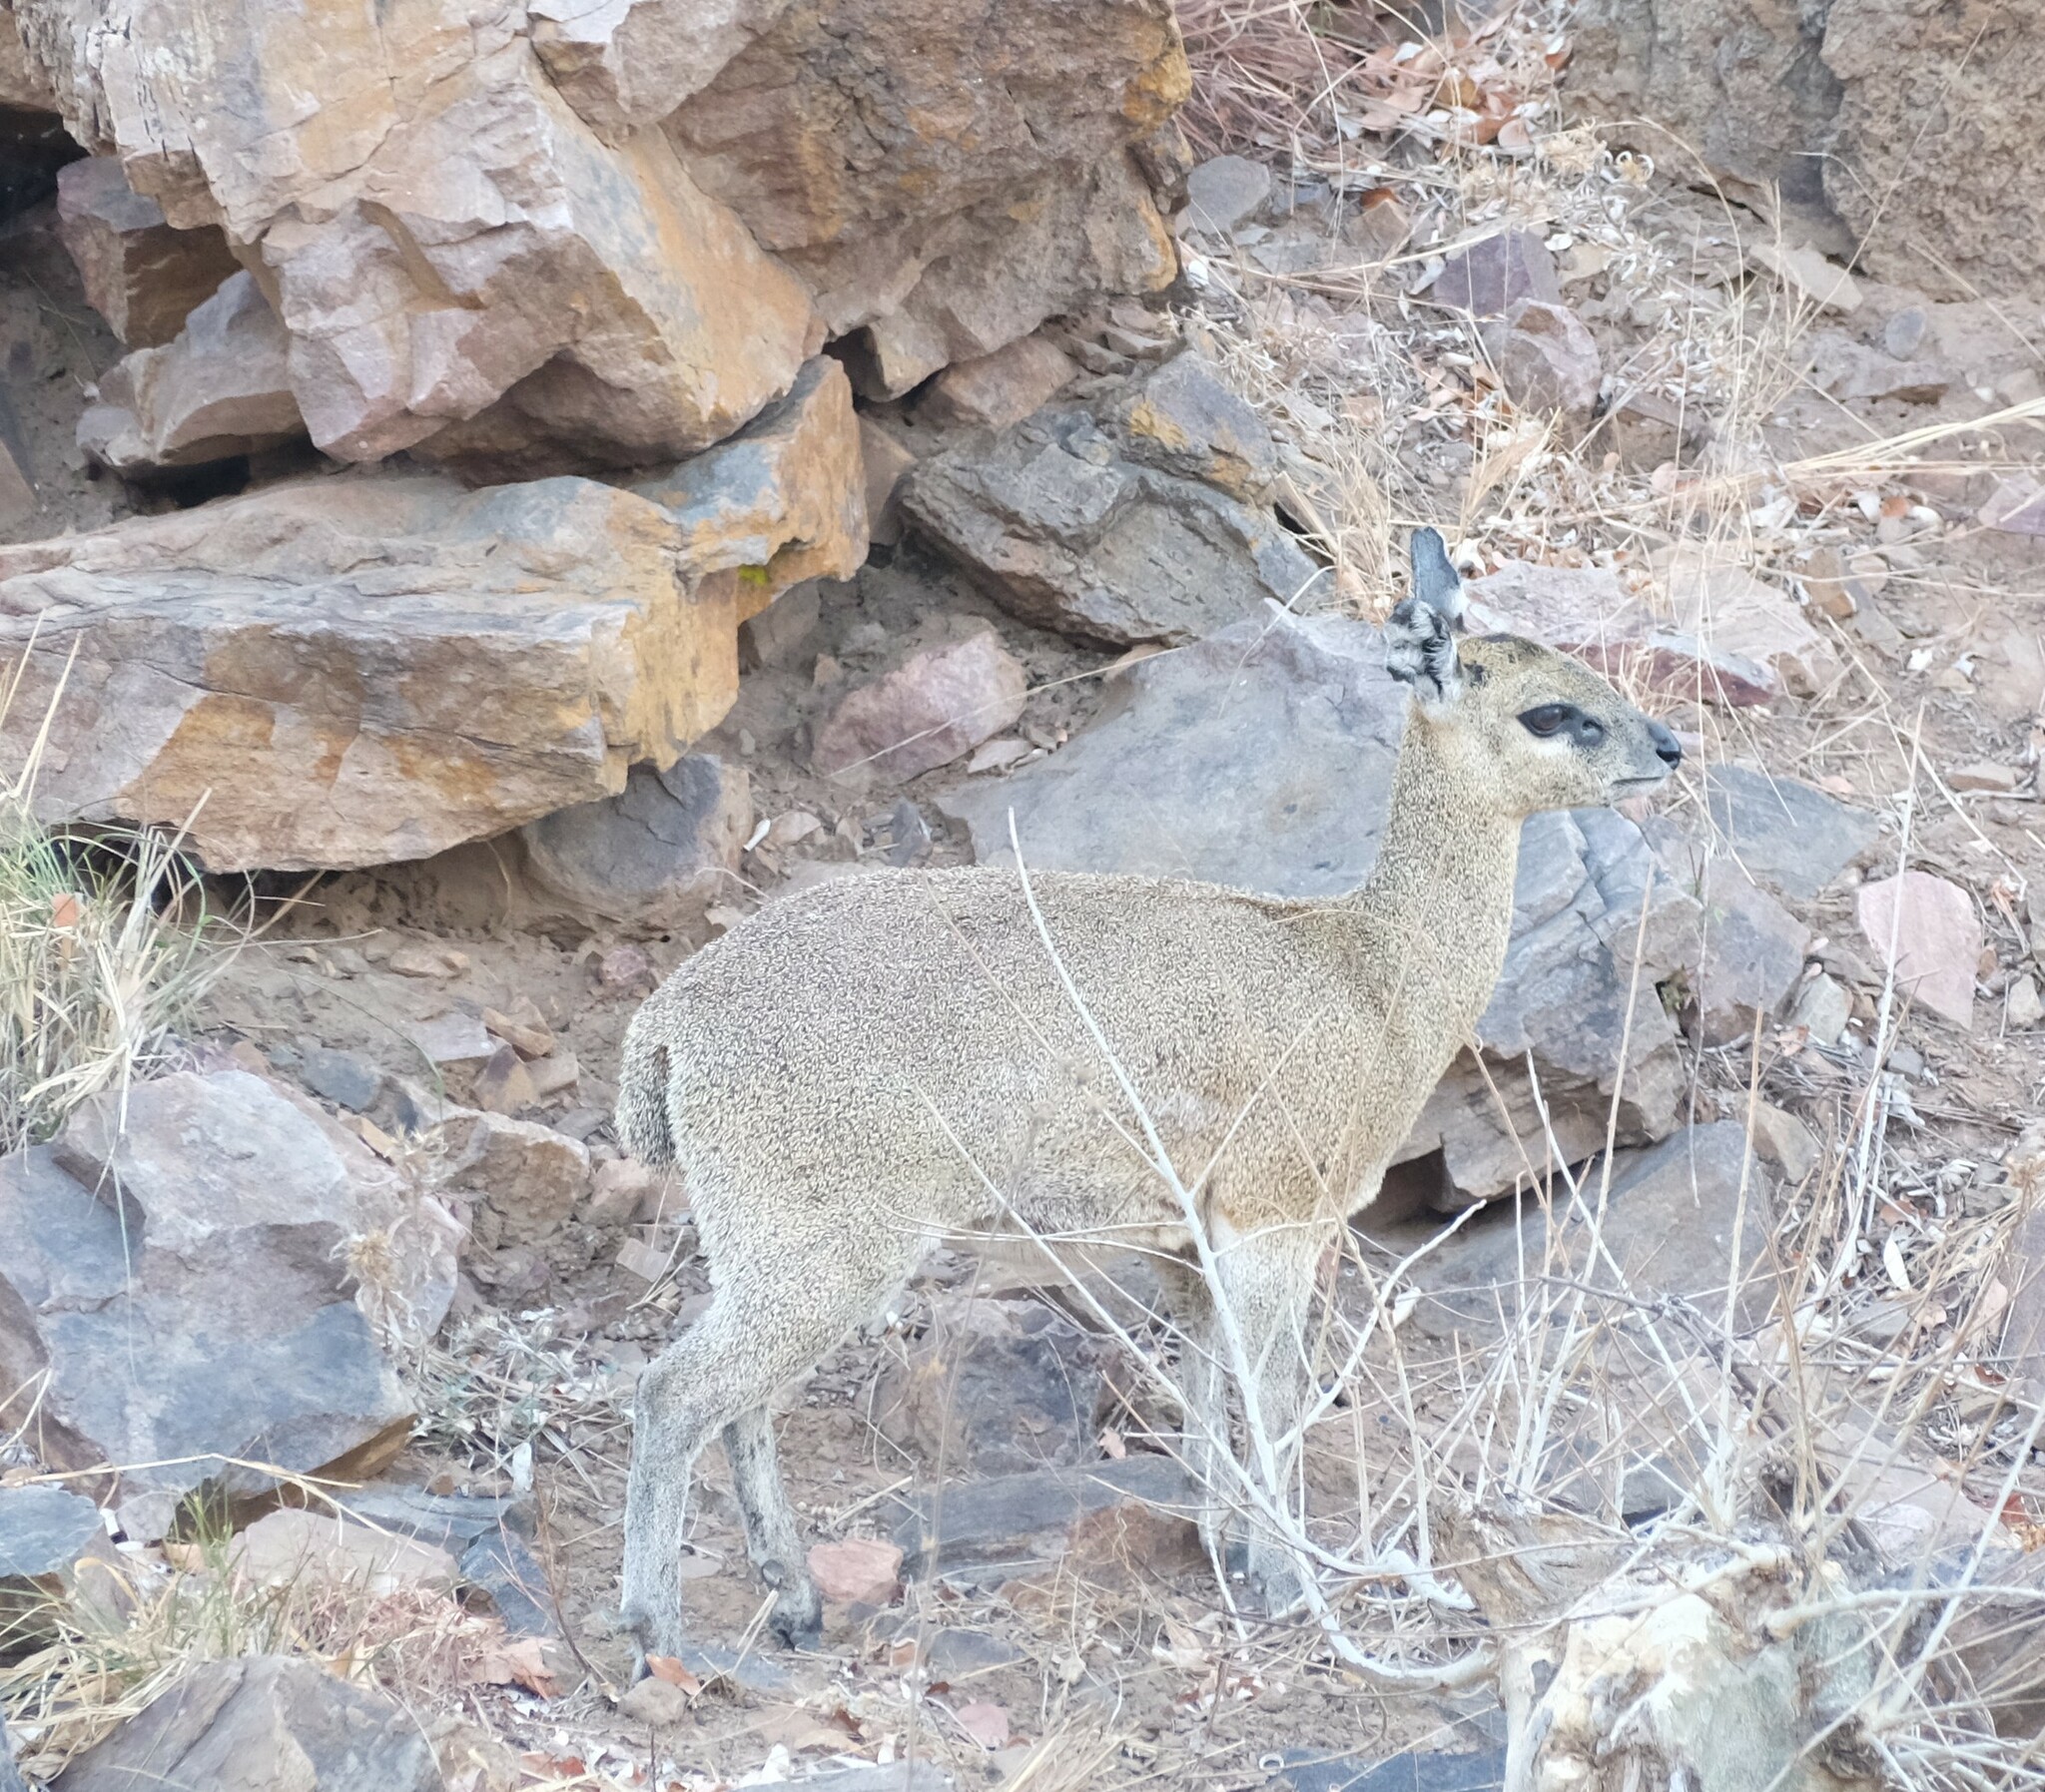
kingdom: Animalia
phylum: Chordata
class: Mammalia
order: Artiodactyla
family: Bovidae
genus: Oreotragus
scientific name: Oreotragus oreotragus
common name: Klipspringer
